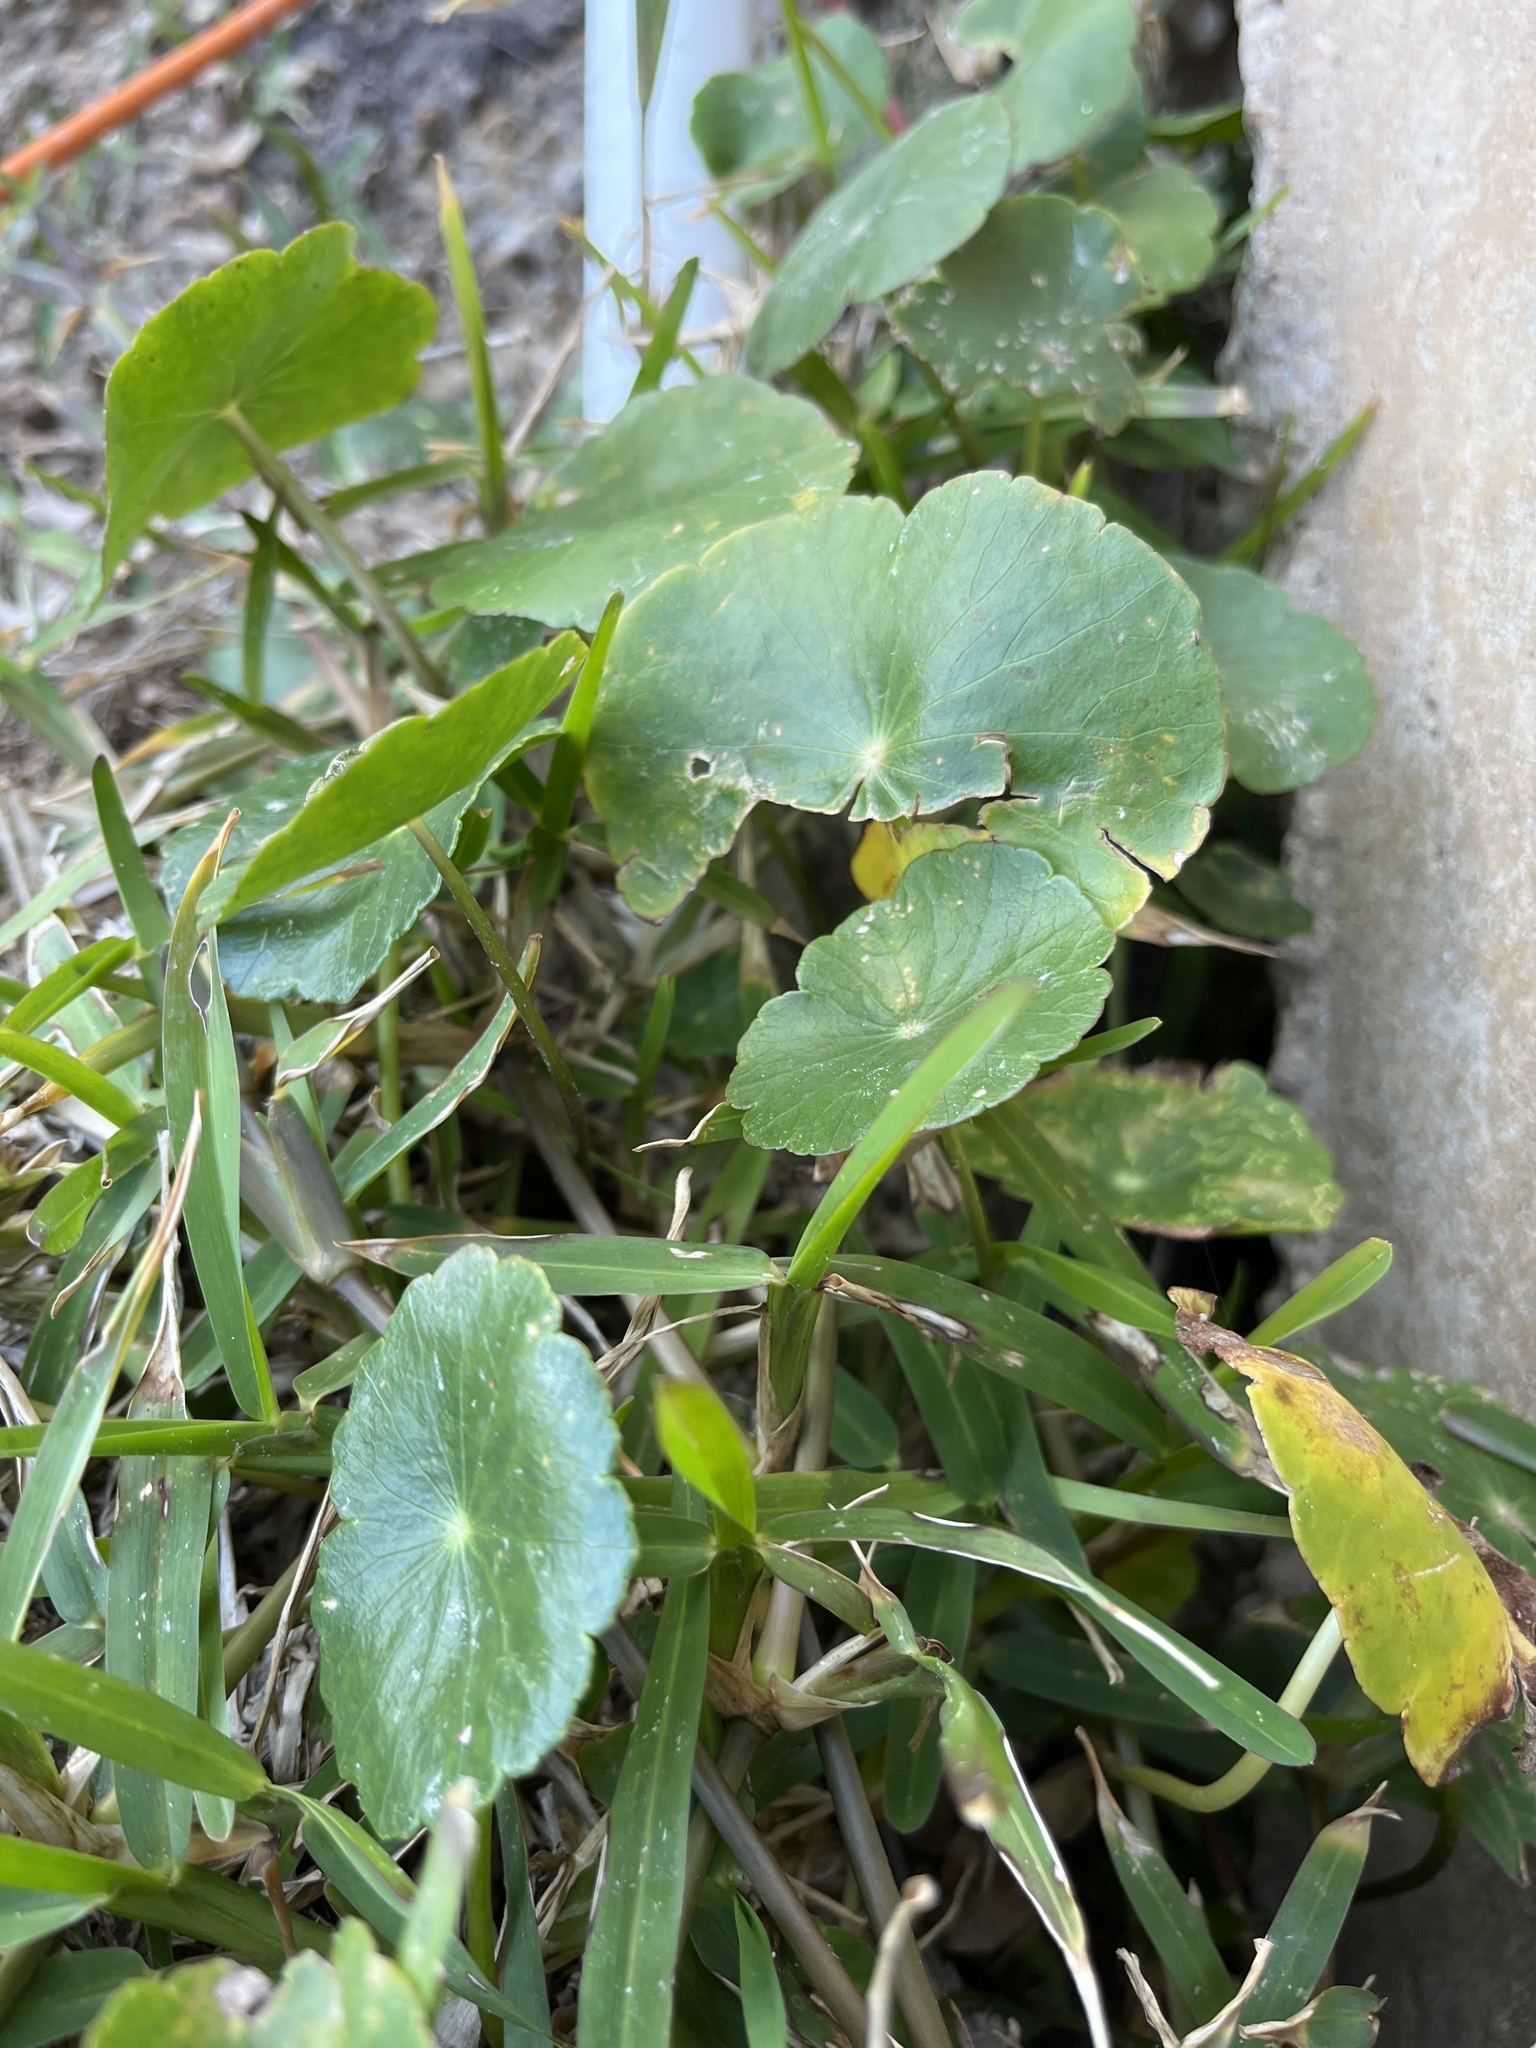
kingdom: Plantae
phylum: Tracheophyta
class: Magnoliopsida
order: Apiales
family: Araliaceae
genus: Hydrocotyle
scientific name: Hydrocotyle bonariensis
